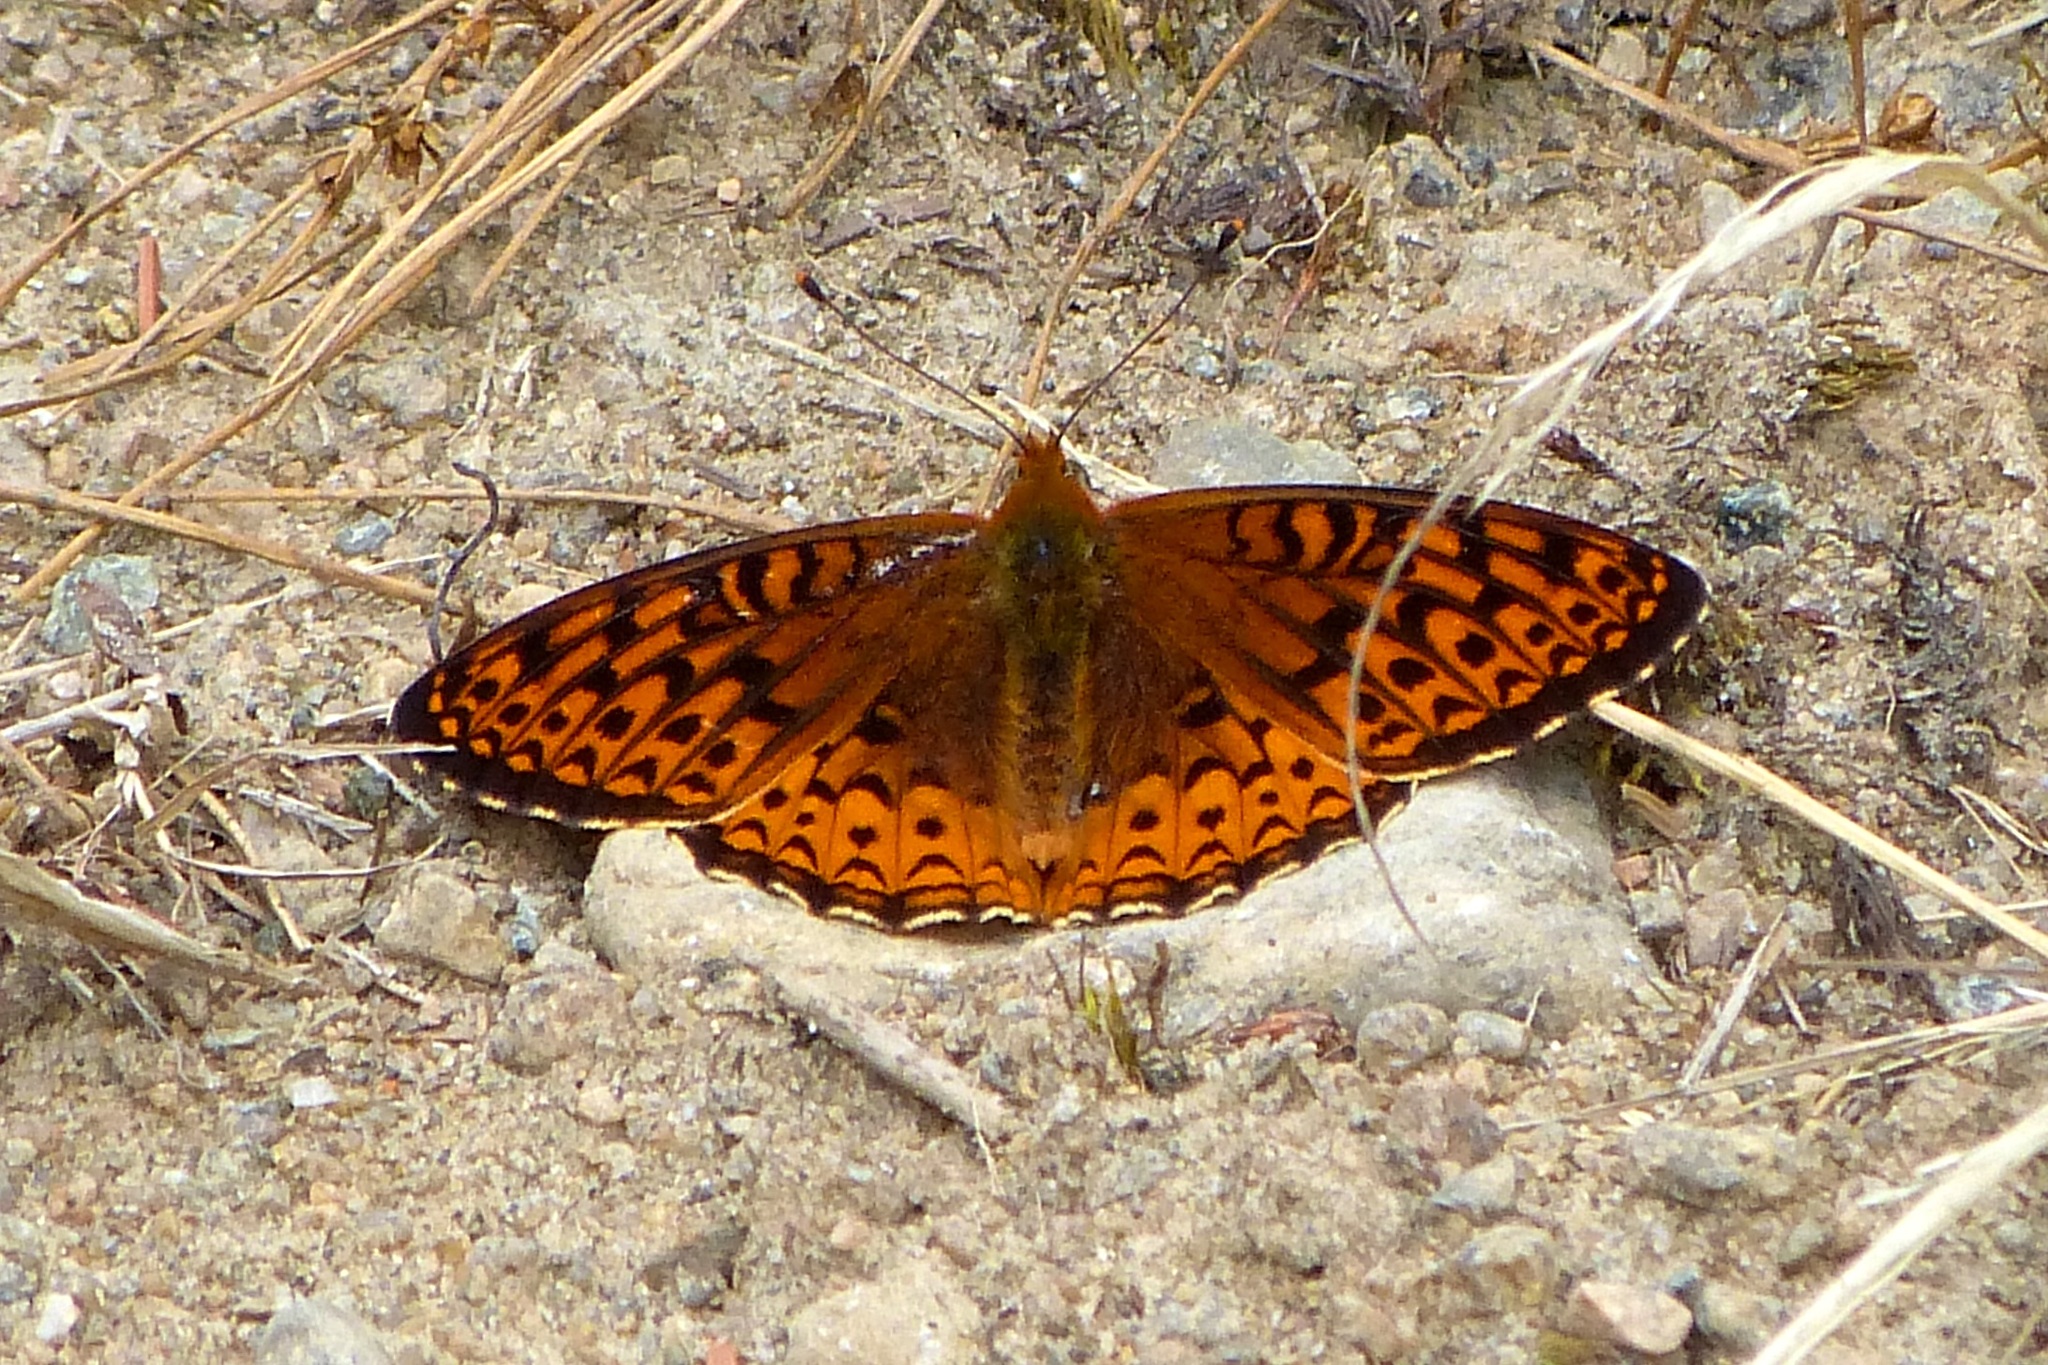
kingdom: Animalia
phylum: Arthropoda
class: Insecta
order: Lepidoptera
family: Nymphalidae
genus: Speyeria
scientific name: Speyeria atlantis
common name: Atlantis fritillary
